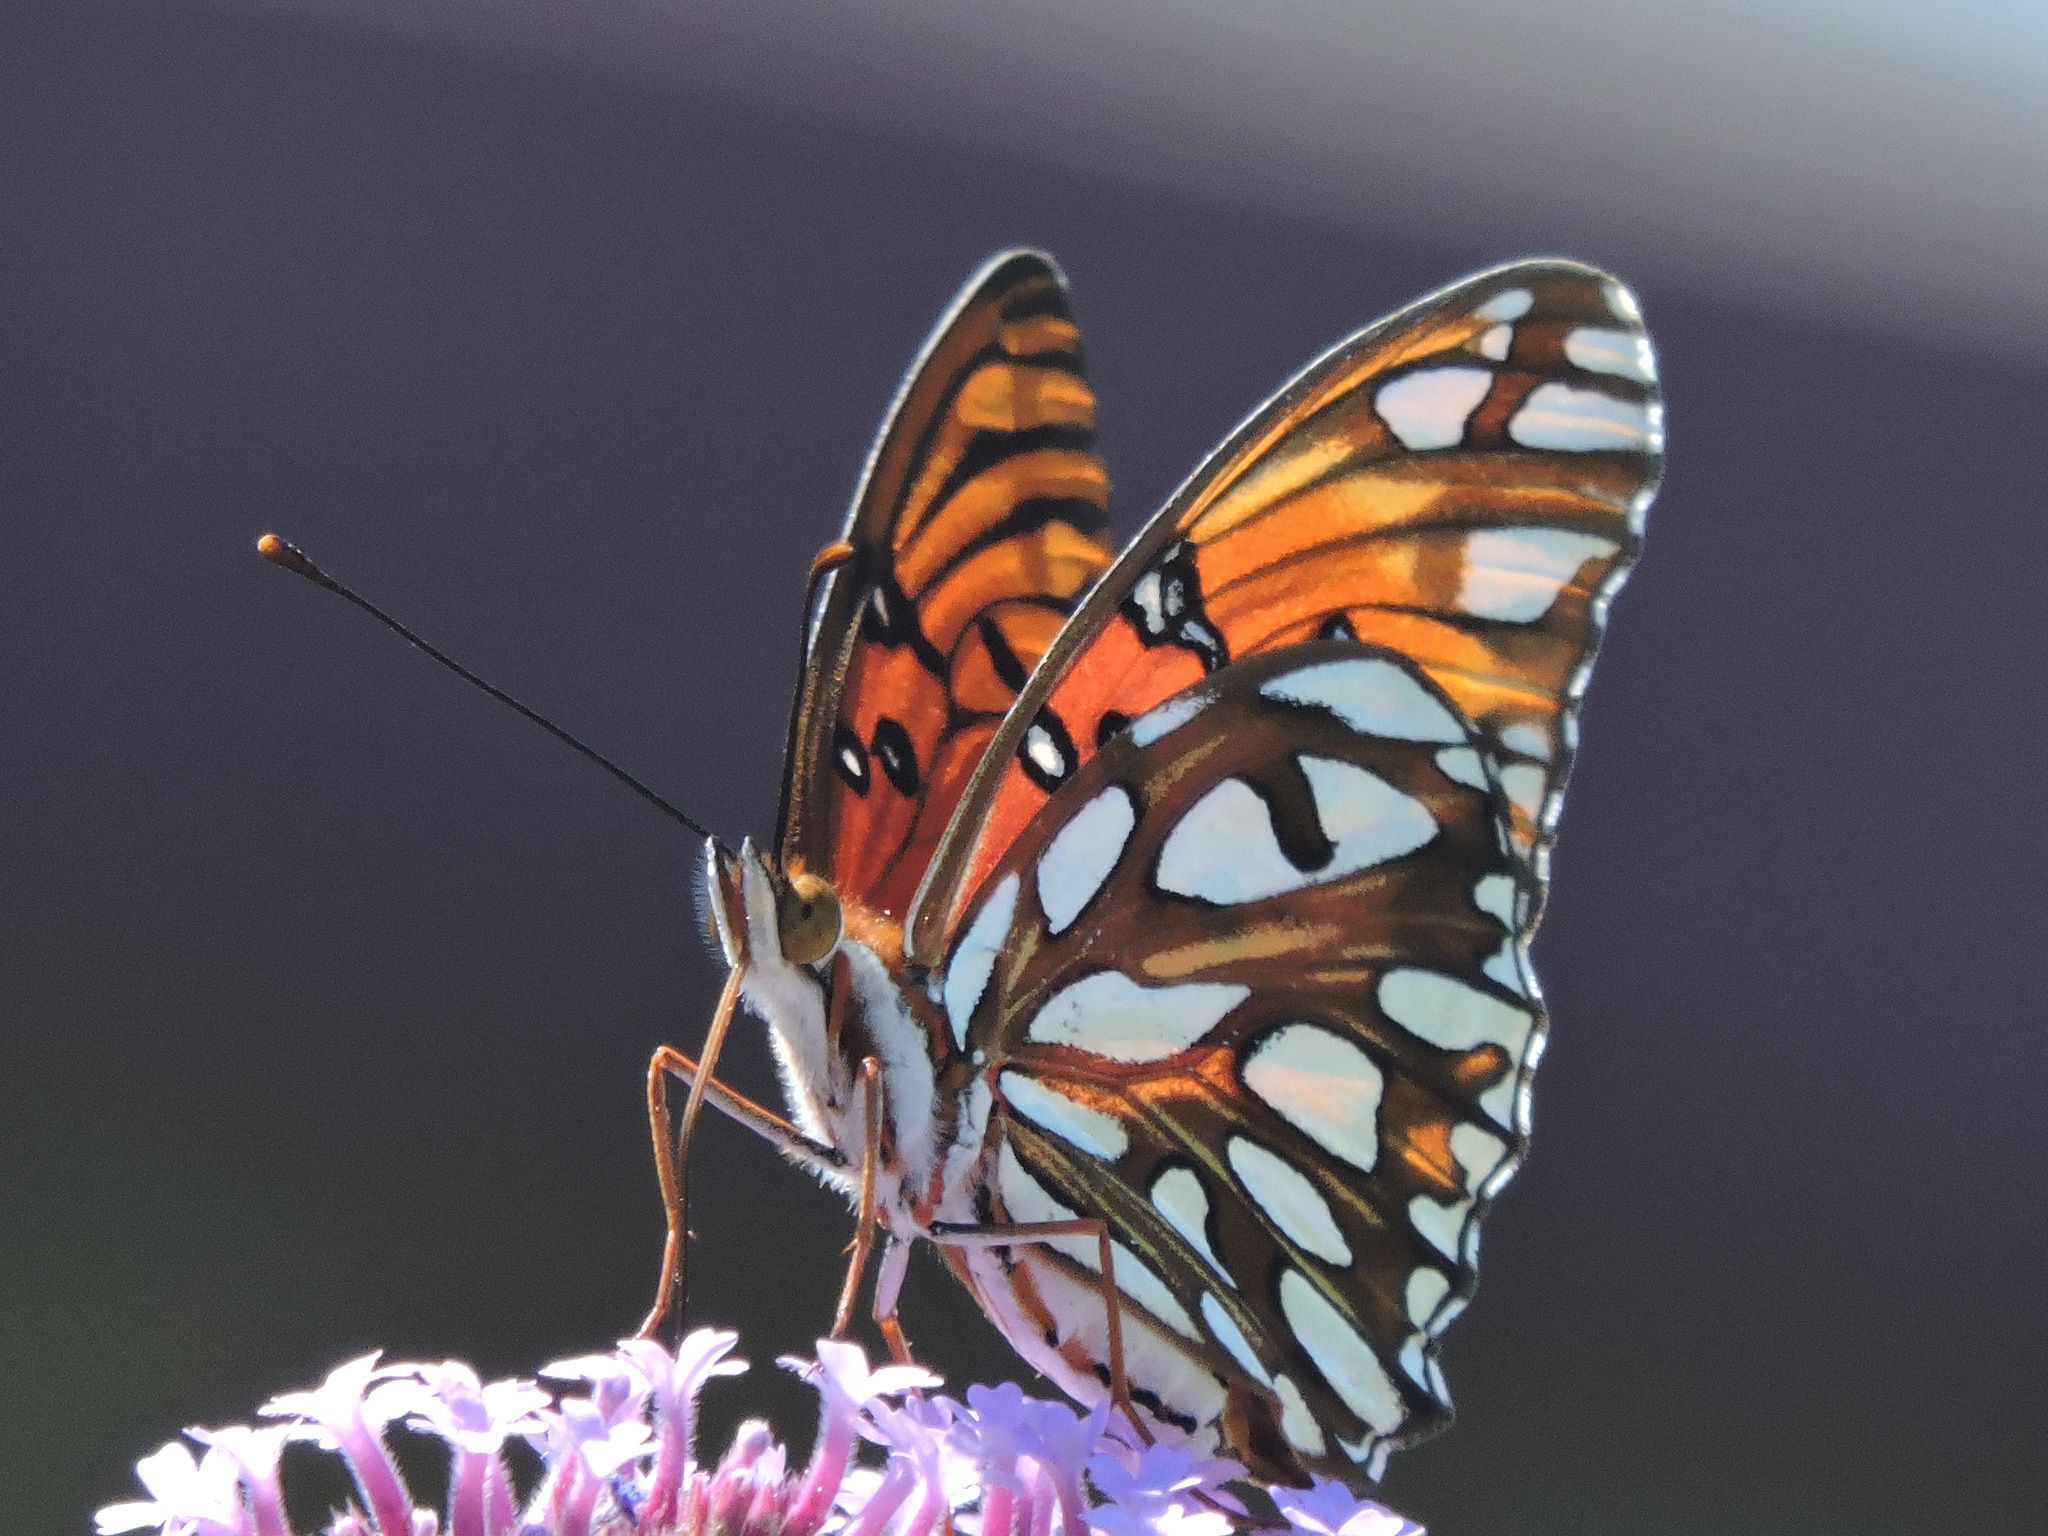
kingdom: Animalia
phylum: Arthropoda
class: Insecta
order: Lepidoptera
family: Nymphalidae
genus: Dione
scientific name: Dione vanillae
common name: Gulf fritillary
